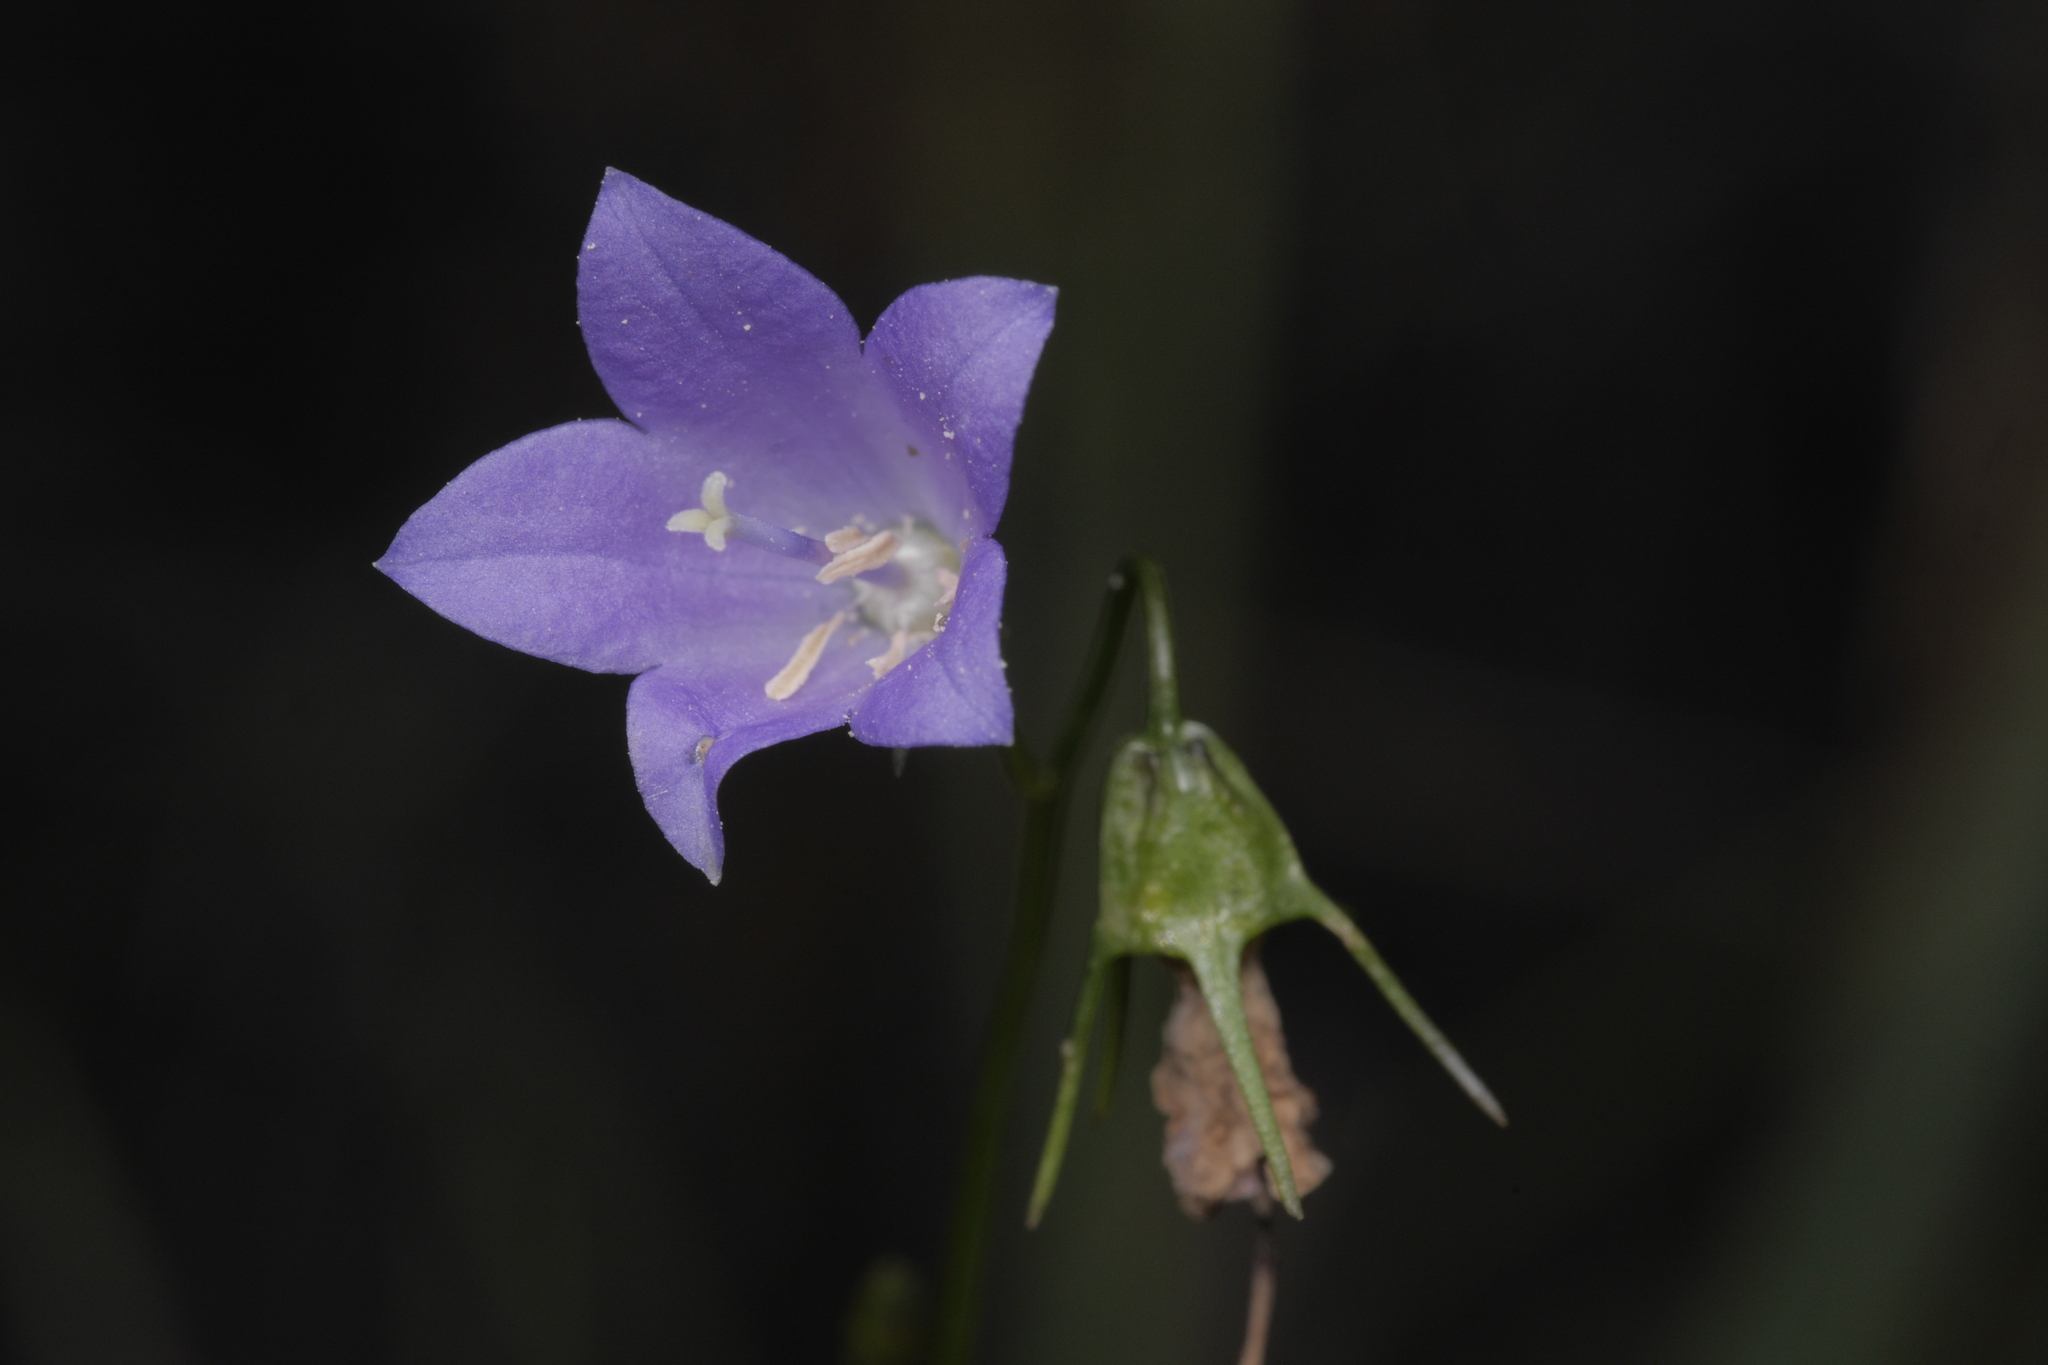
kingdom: Plantae
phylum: Tracheophyta
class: Magnoliopsida
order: Asterales
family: Campanulaceae
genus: Campanula
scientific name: Campanula rapunculus
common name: Rampion bellflower
